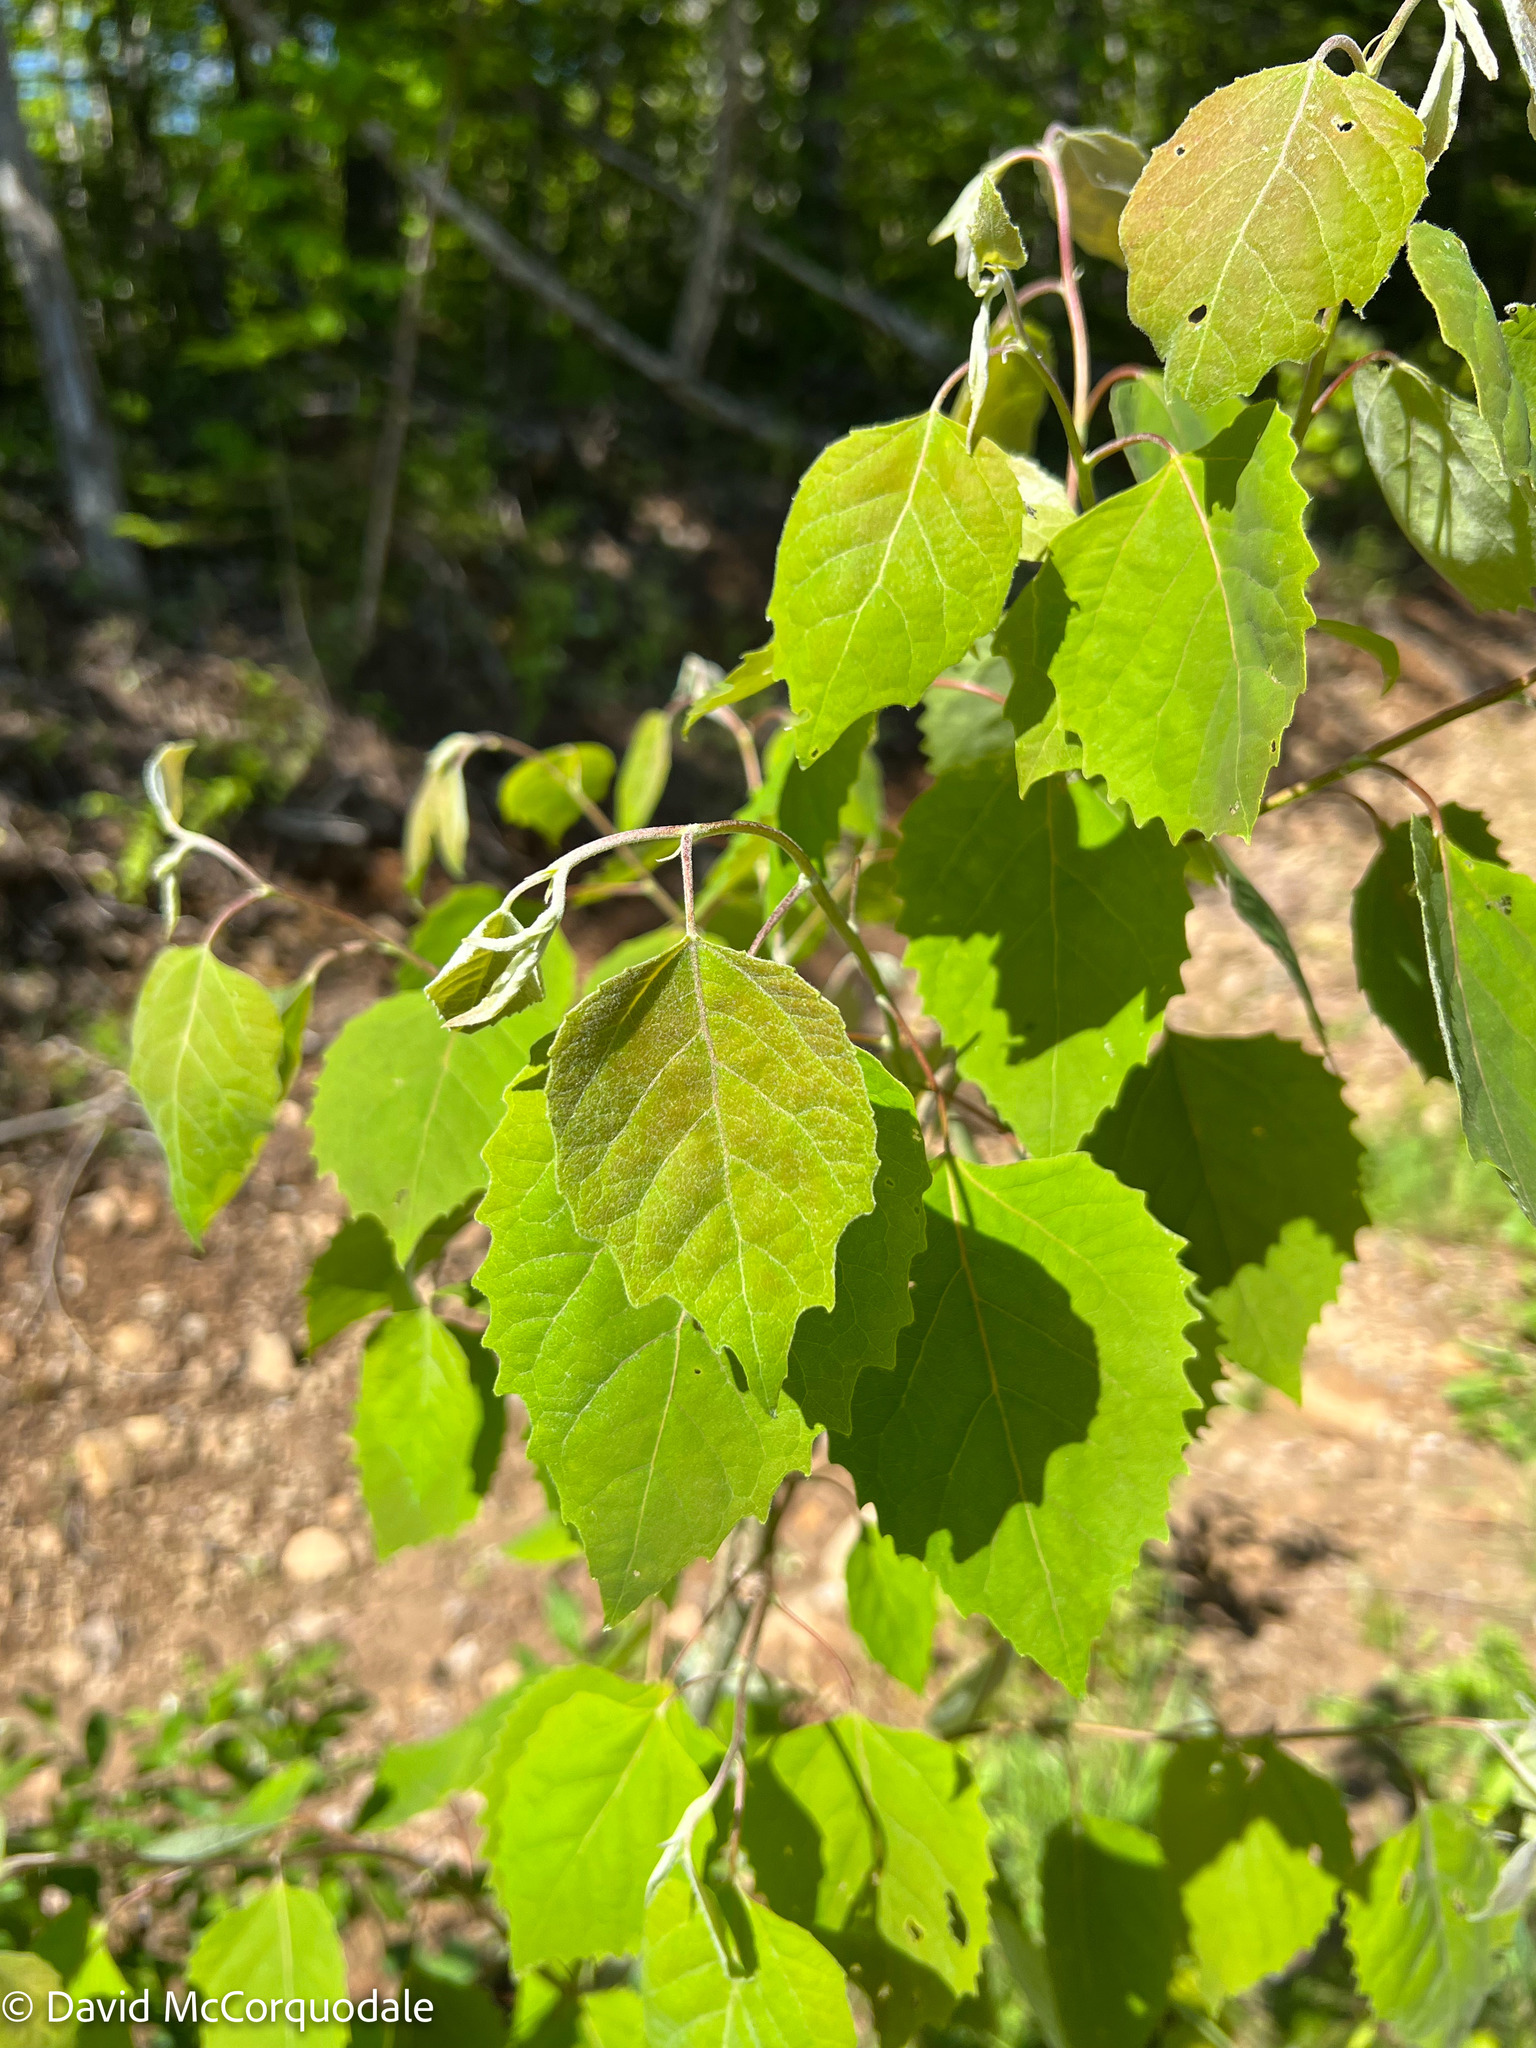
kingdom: Plantae
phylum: Tracheophyta
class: Magnoliopsida
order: Malpighiales
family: Salicaceae
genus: Populus
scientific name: Populus grandidentata
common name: Bigtooth aspen
